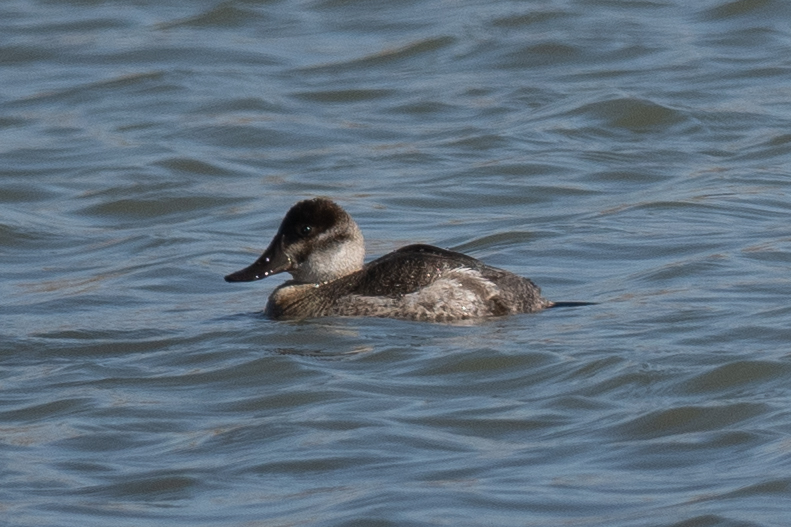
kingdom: Animalia
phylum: Chordata
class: Aves
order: Anseriformes
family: Anatidae
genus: Oxyura
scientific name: Oxyura jamaicensis
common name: Ruddy duck
